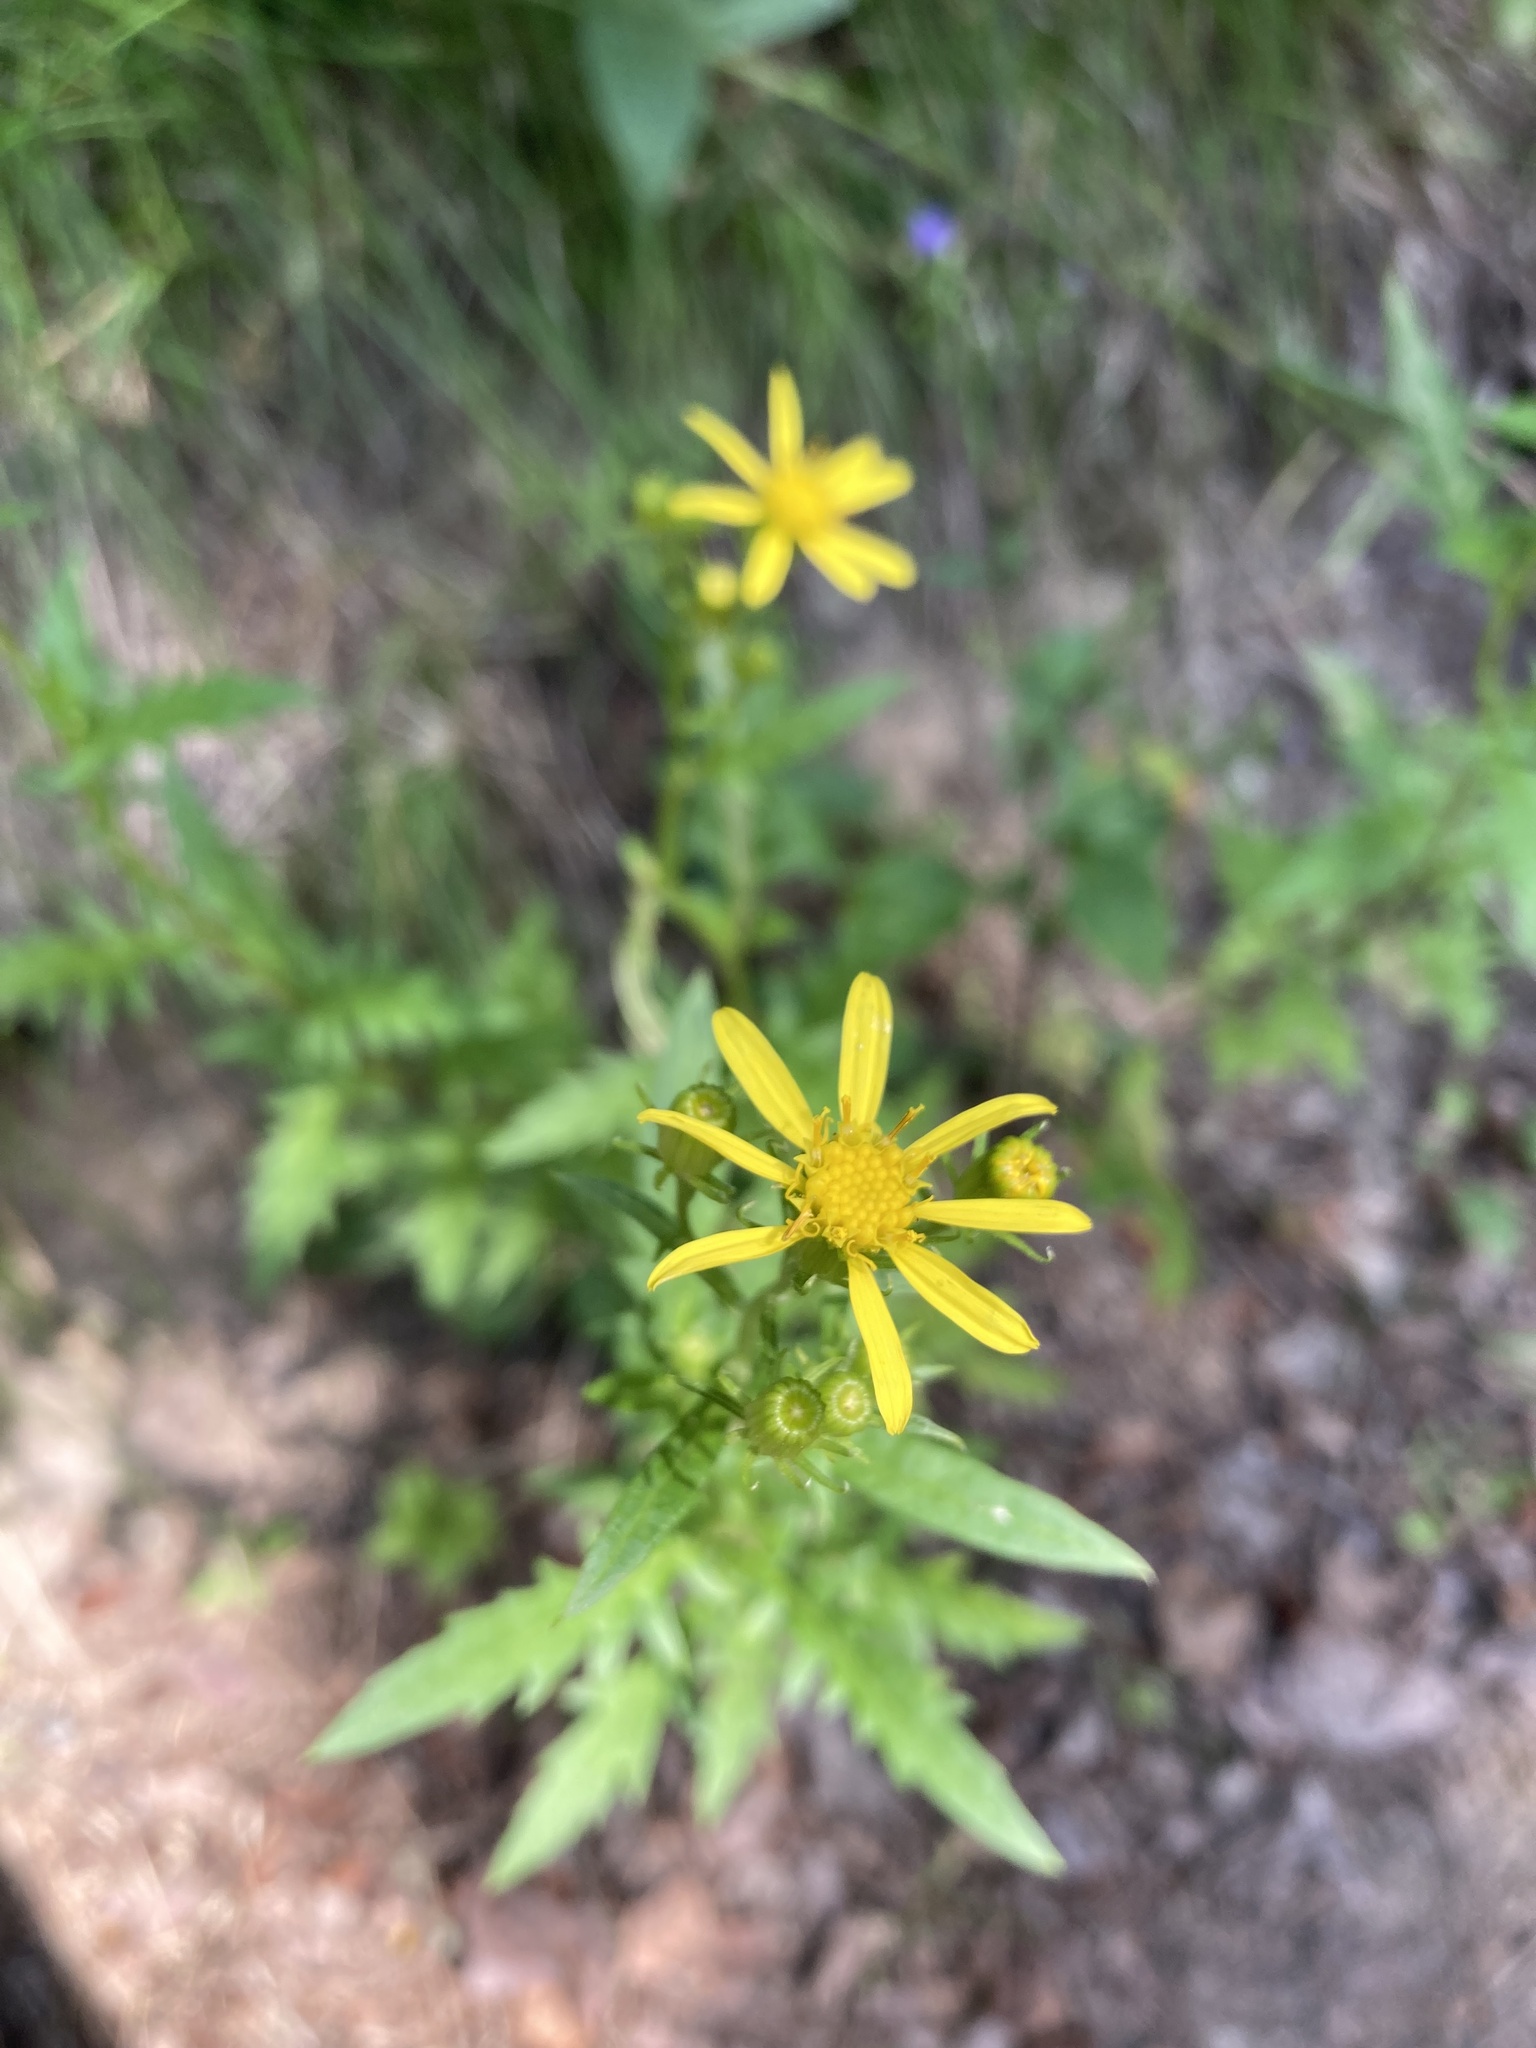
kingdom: Plantae
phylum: Tracheophyta
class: Magnoliopsida
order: Asterales
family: Asteraceae
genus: Senecio
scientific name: Senecio eremophilus
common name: Desert ragwort
